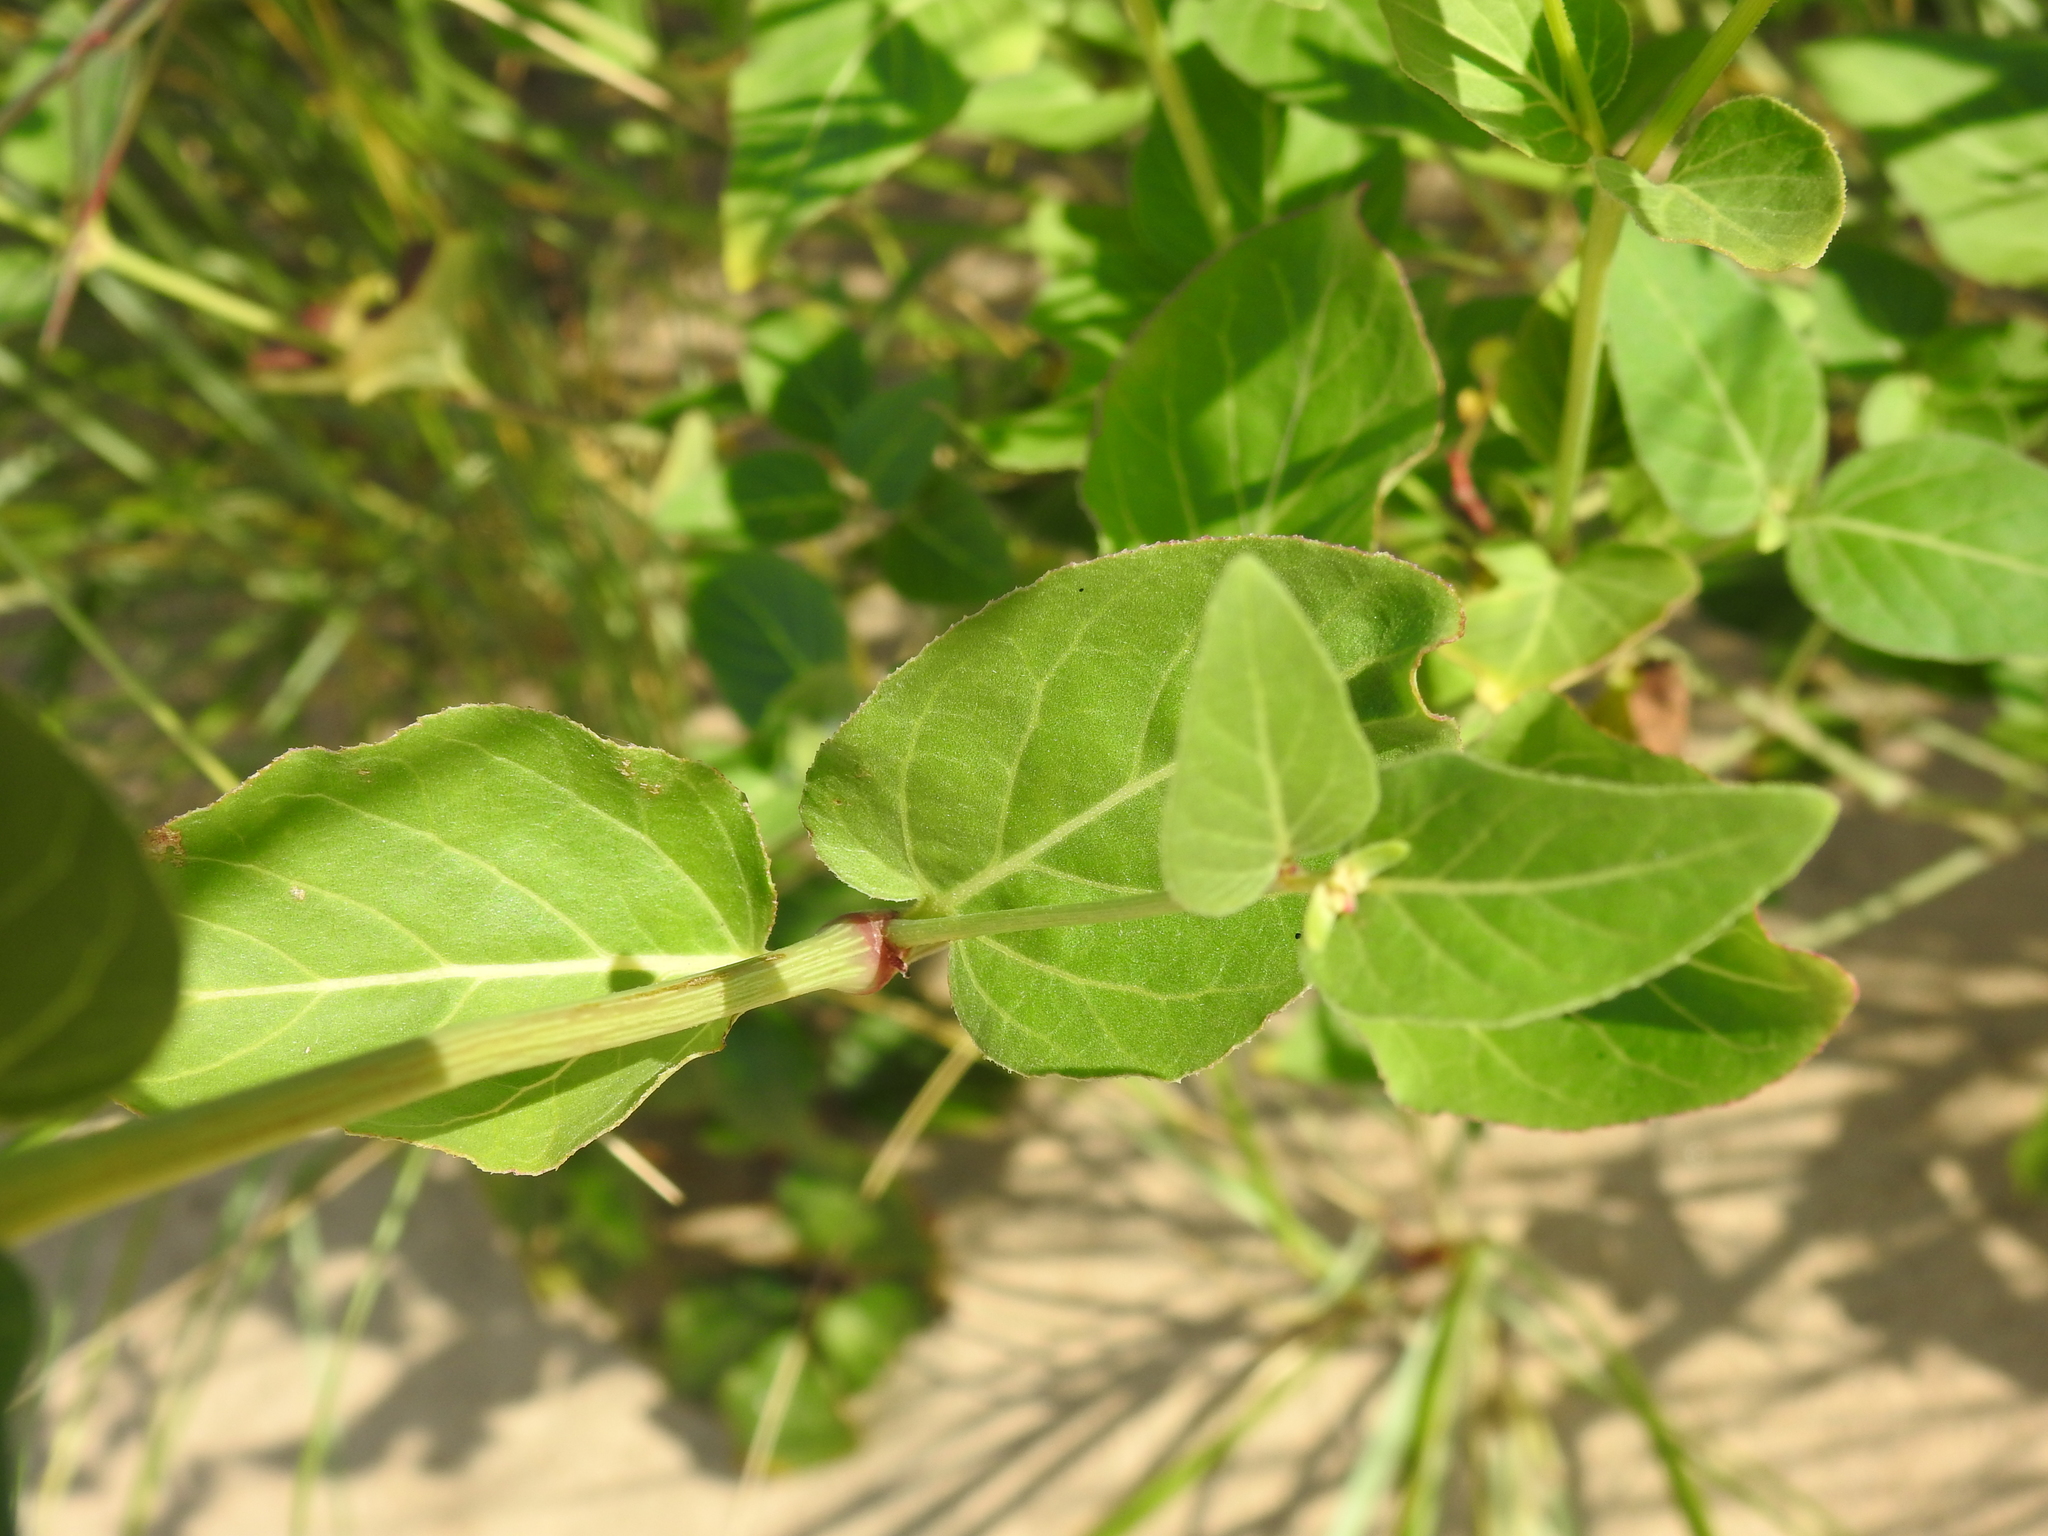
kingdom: Plantae
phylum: Tracheophyta
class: Magnoliopsida
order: Caryophyllales
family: Nyctaginaceae
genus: Mirabilis
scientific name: Mirabilis nyctaginea
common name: Umbrella wort
